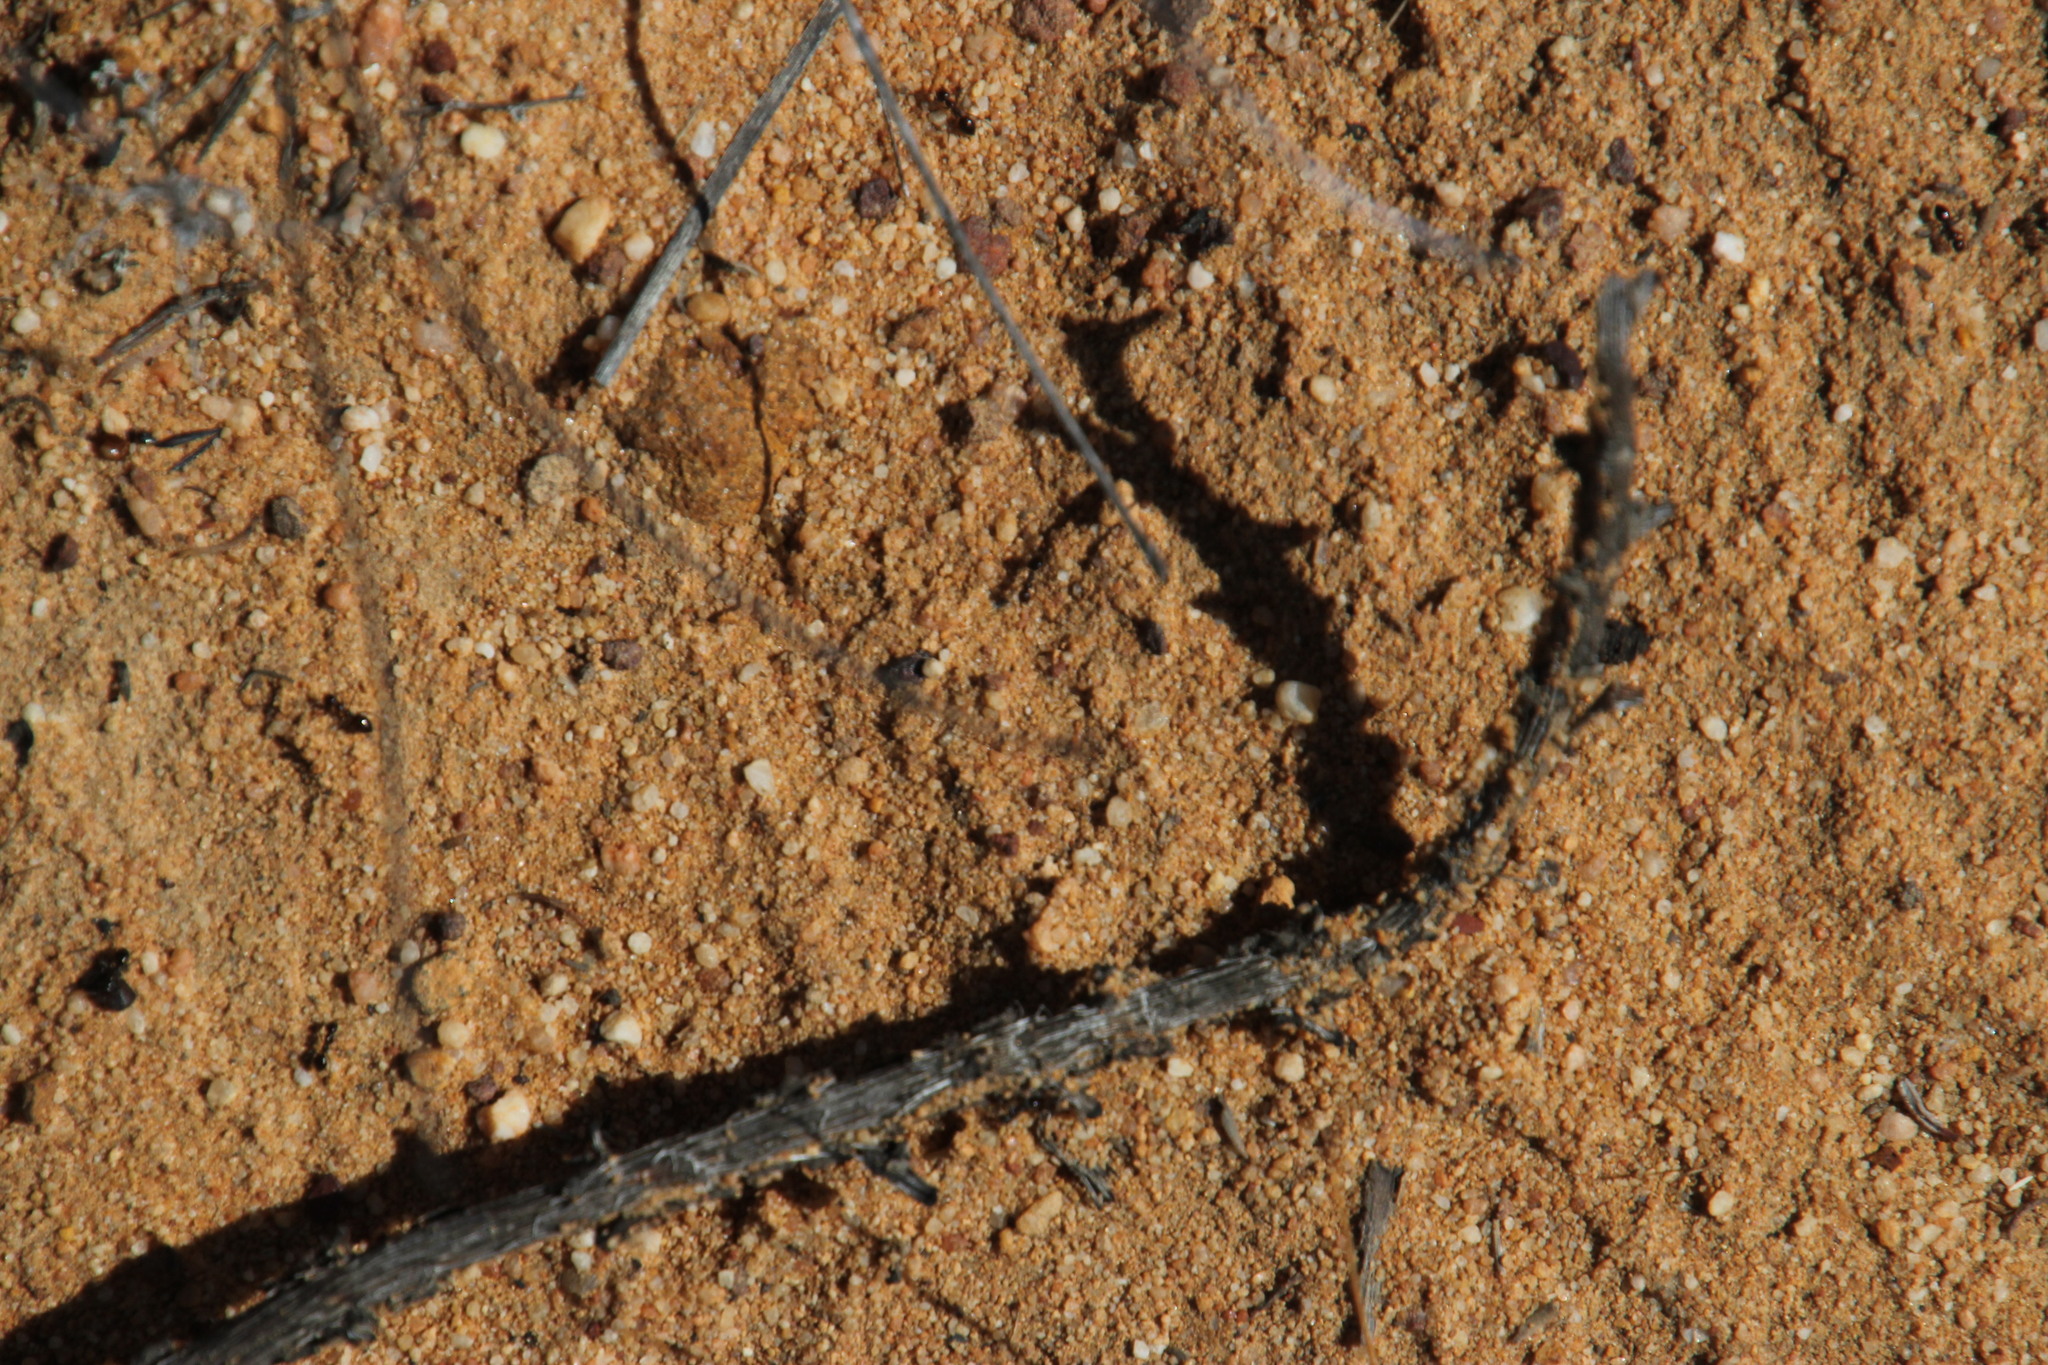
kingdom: Animalia
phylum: Arthropoda
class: Insecta
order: Hymenoptera
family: Formicidae
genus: Lepisiota
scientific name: Lepisiota capensis
